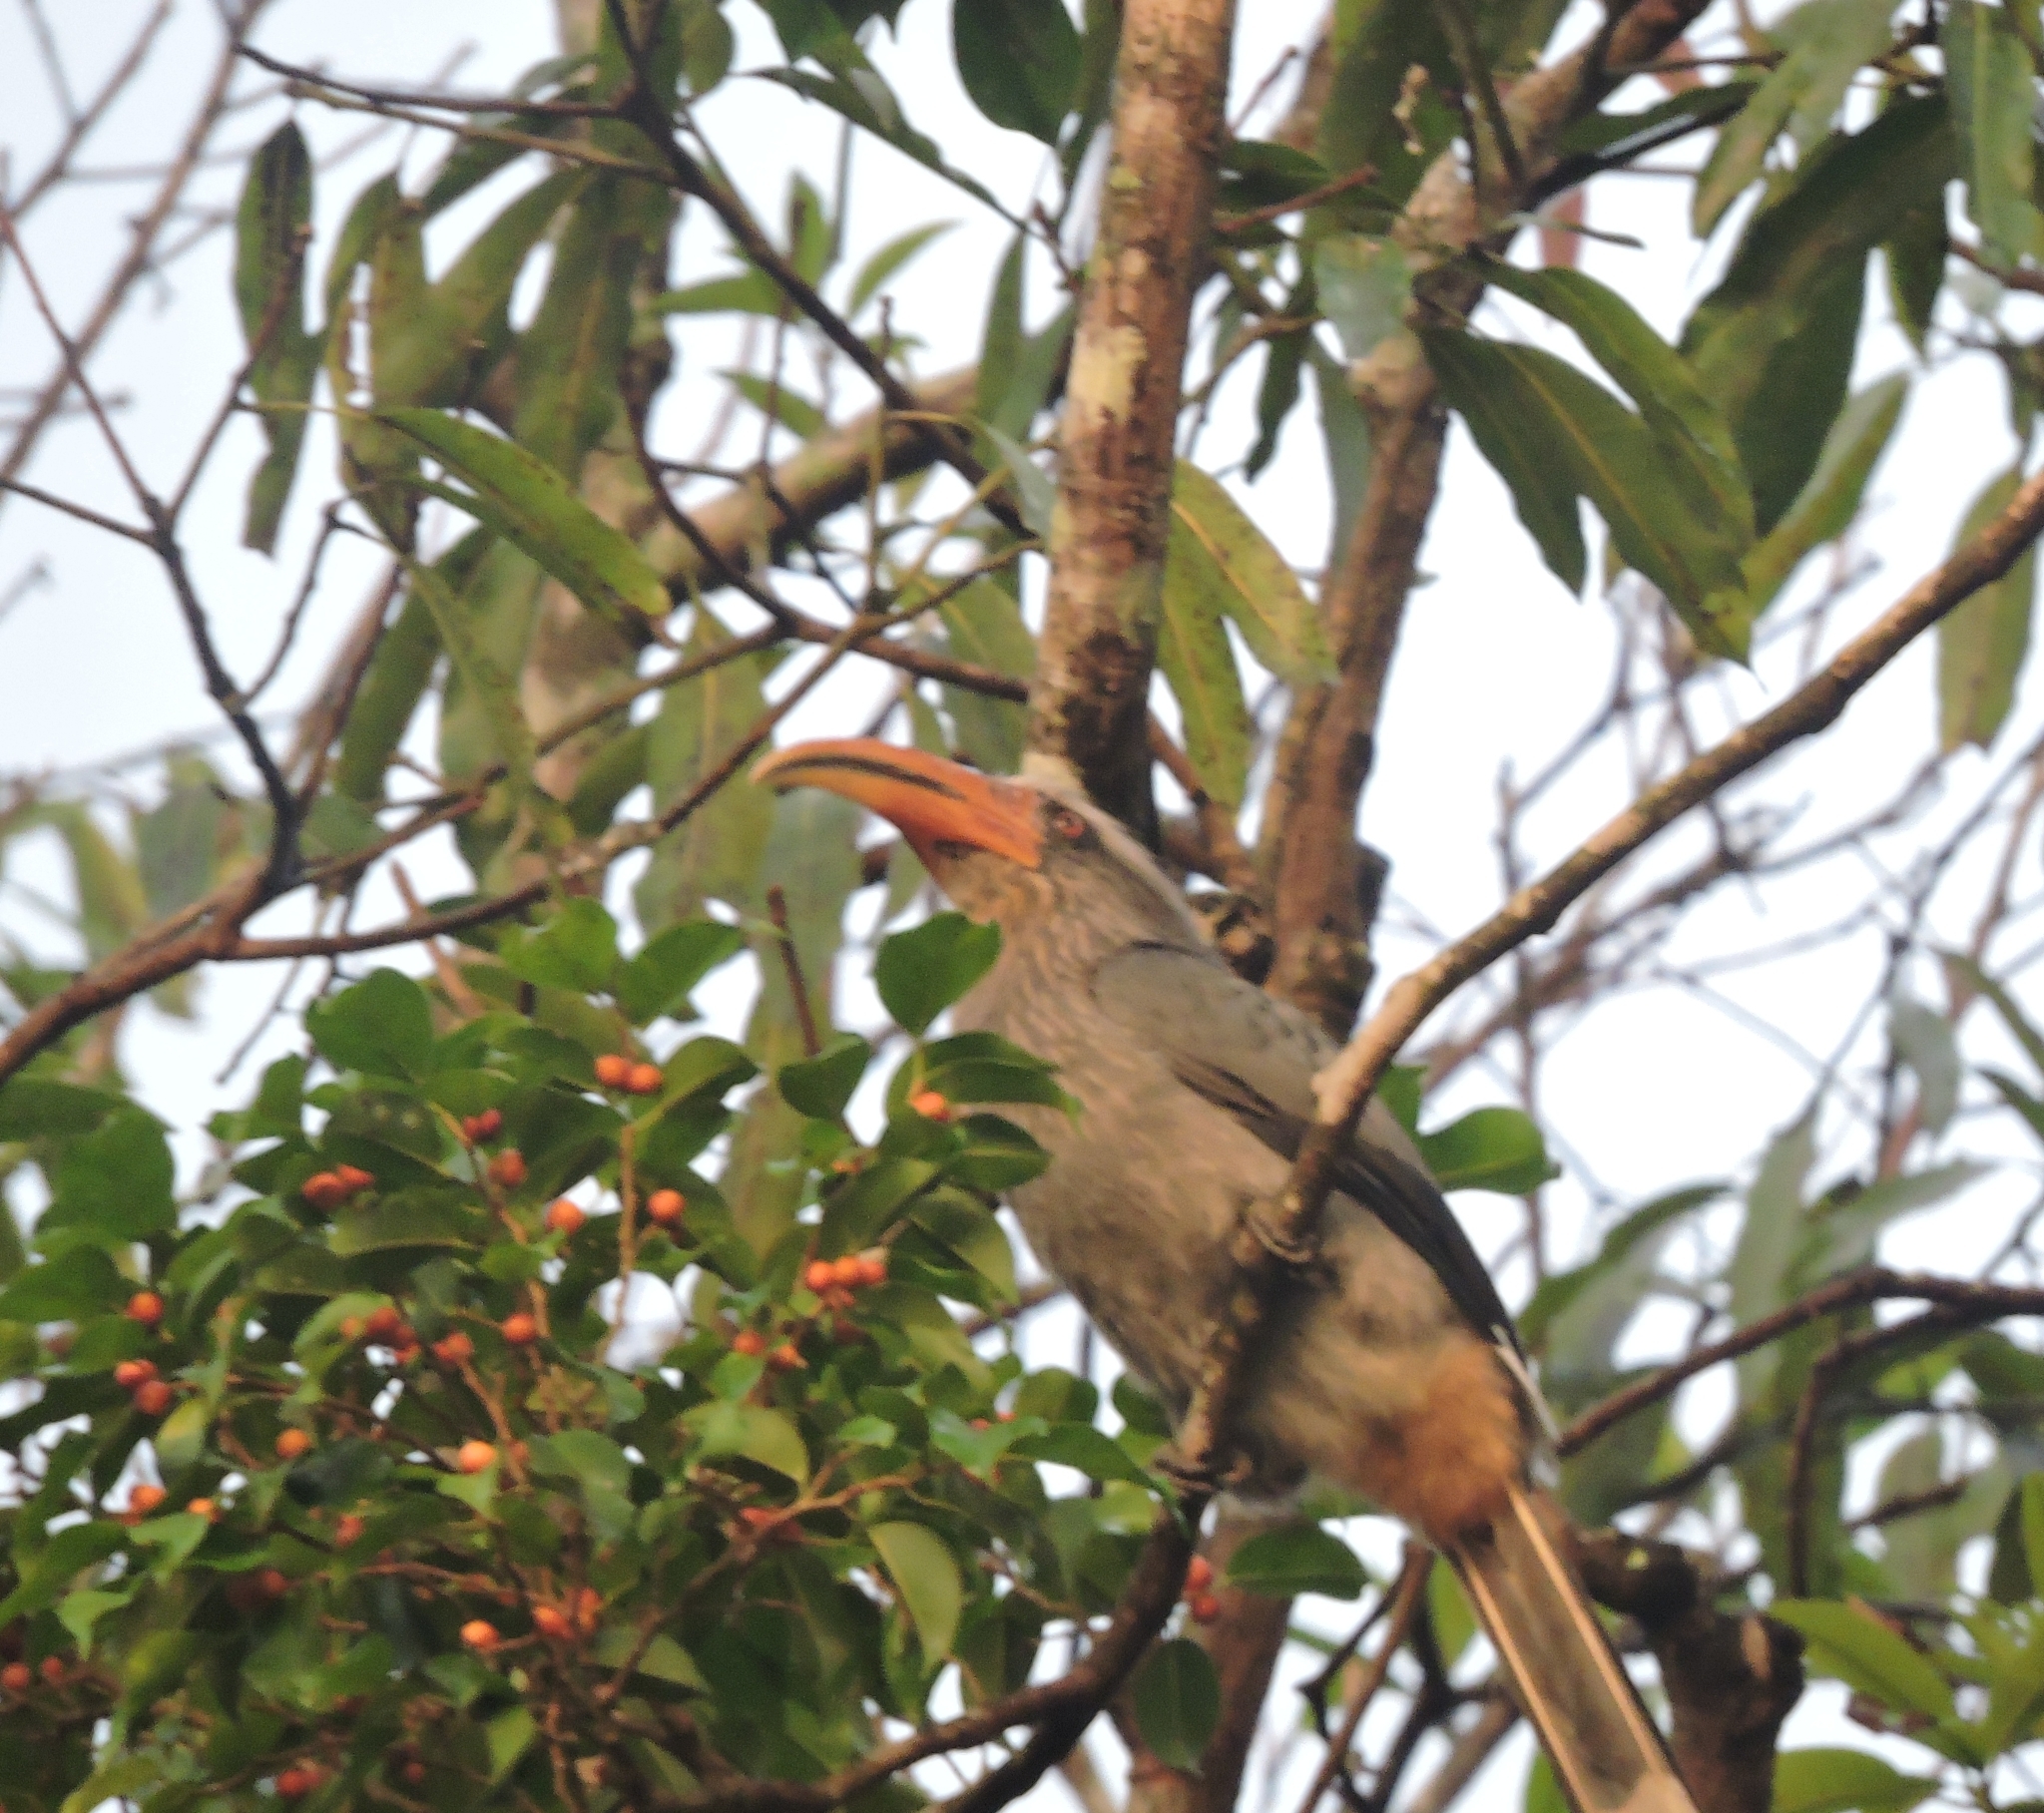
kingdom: Animalia
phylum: Chordata
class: Aves
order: Bucerotiformes
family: Bucerotidae
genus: Ocyceros
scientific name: Ocyceros griseus
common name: Malabar grey hornbill
